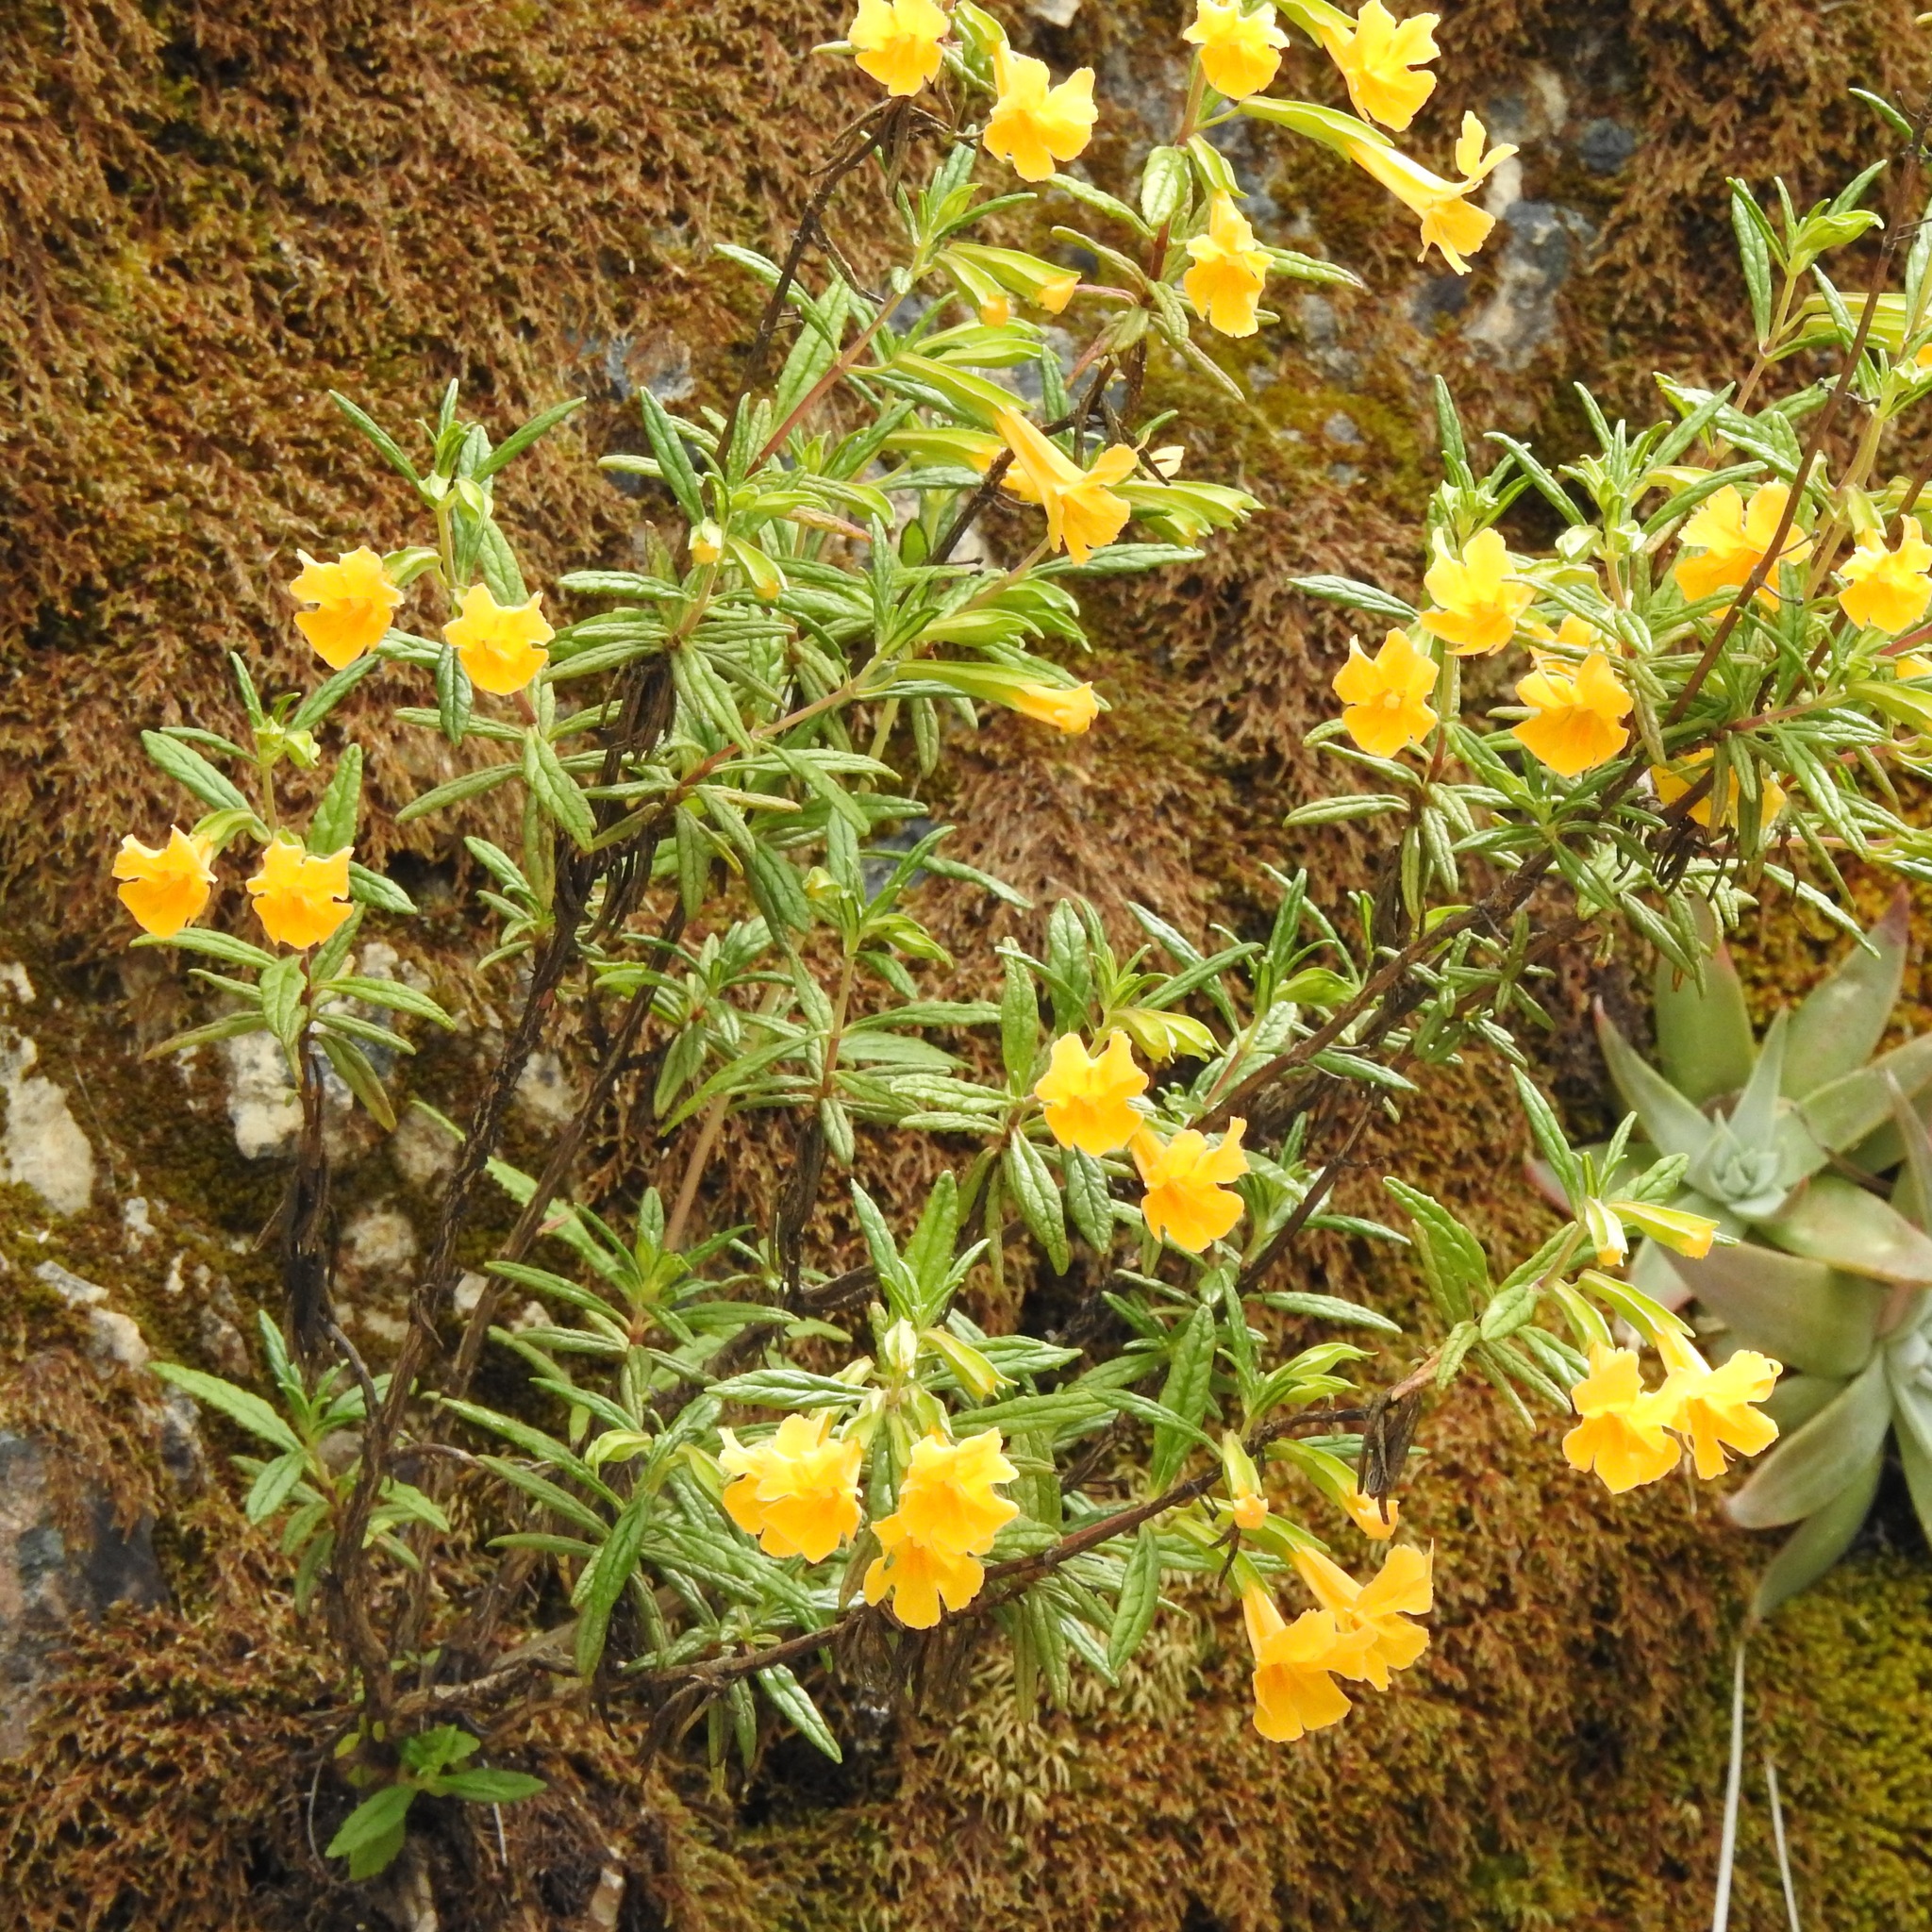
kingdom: Plantae
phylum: Tracheophyta
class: Magnoliopsida
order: Lamiales
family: Phrymaceae
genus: Diplacus
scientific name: Diplacus aurantiacus
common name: Bush monkey-flower
